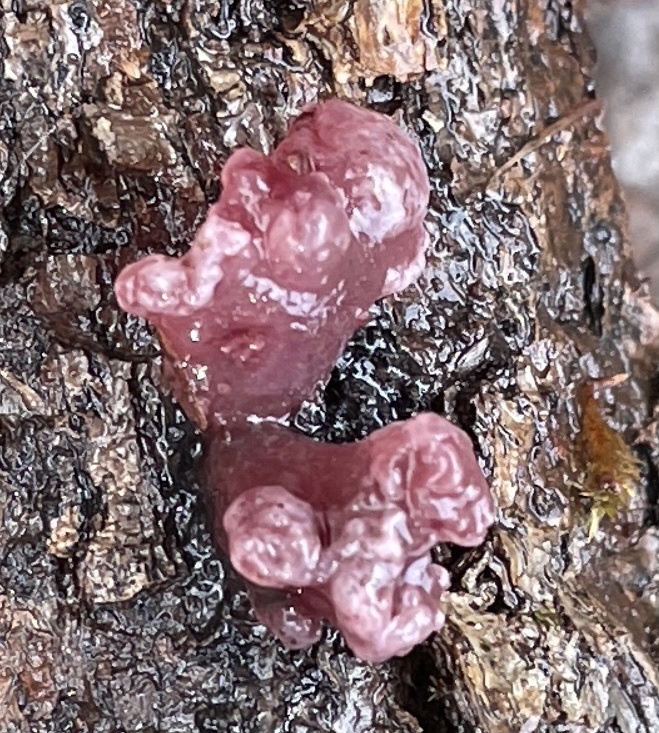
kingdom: Fungi
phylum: Ascomycota
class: Leotiomycetes
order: Helotiales
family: Gelatinodiscaceae
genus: Ascocoryne
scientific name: Ascocoryne sarcoides
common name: Purple jellydisc
